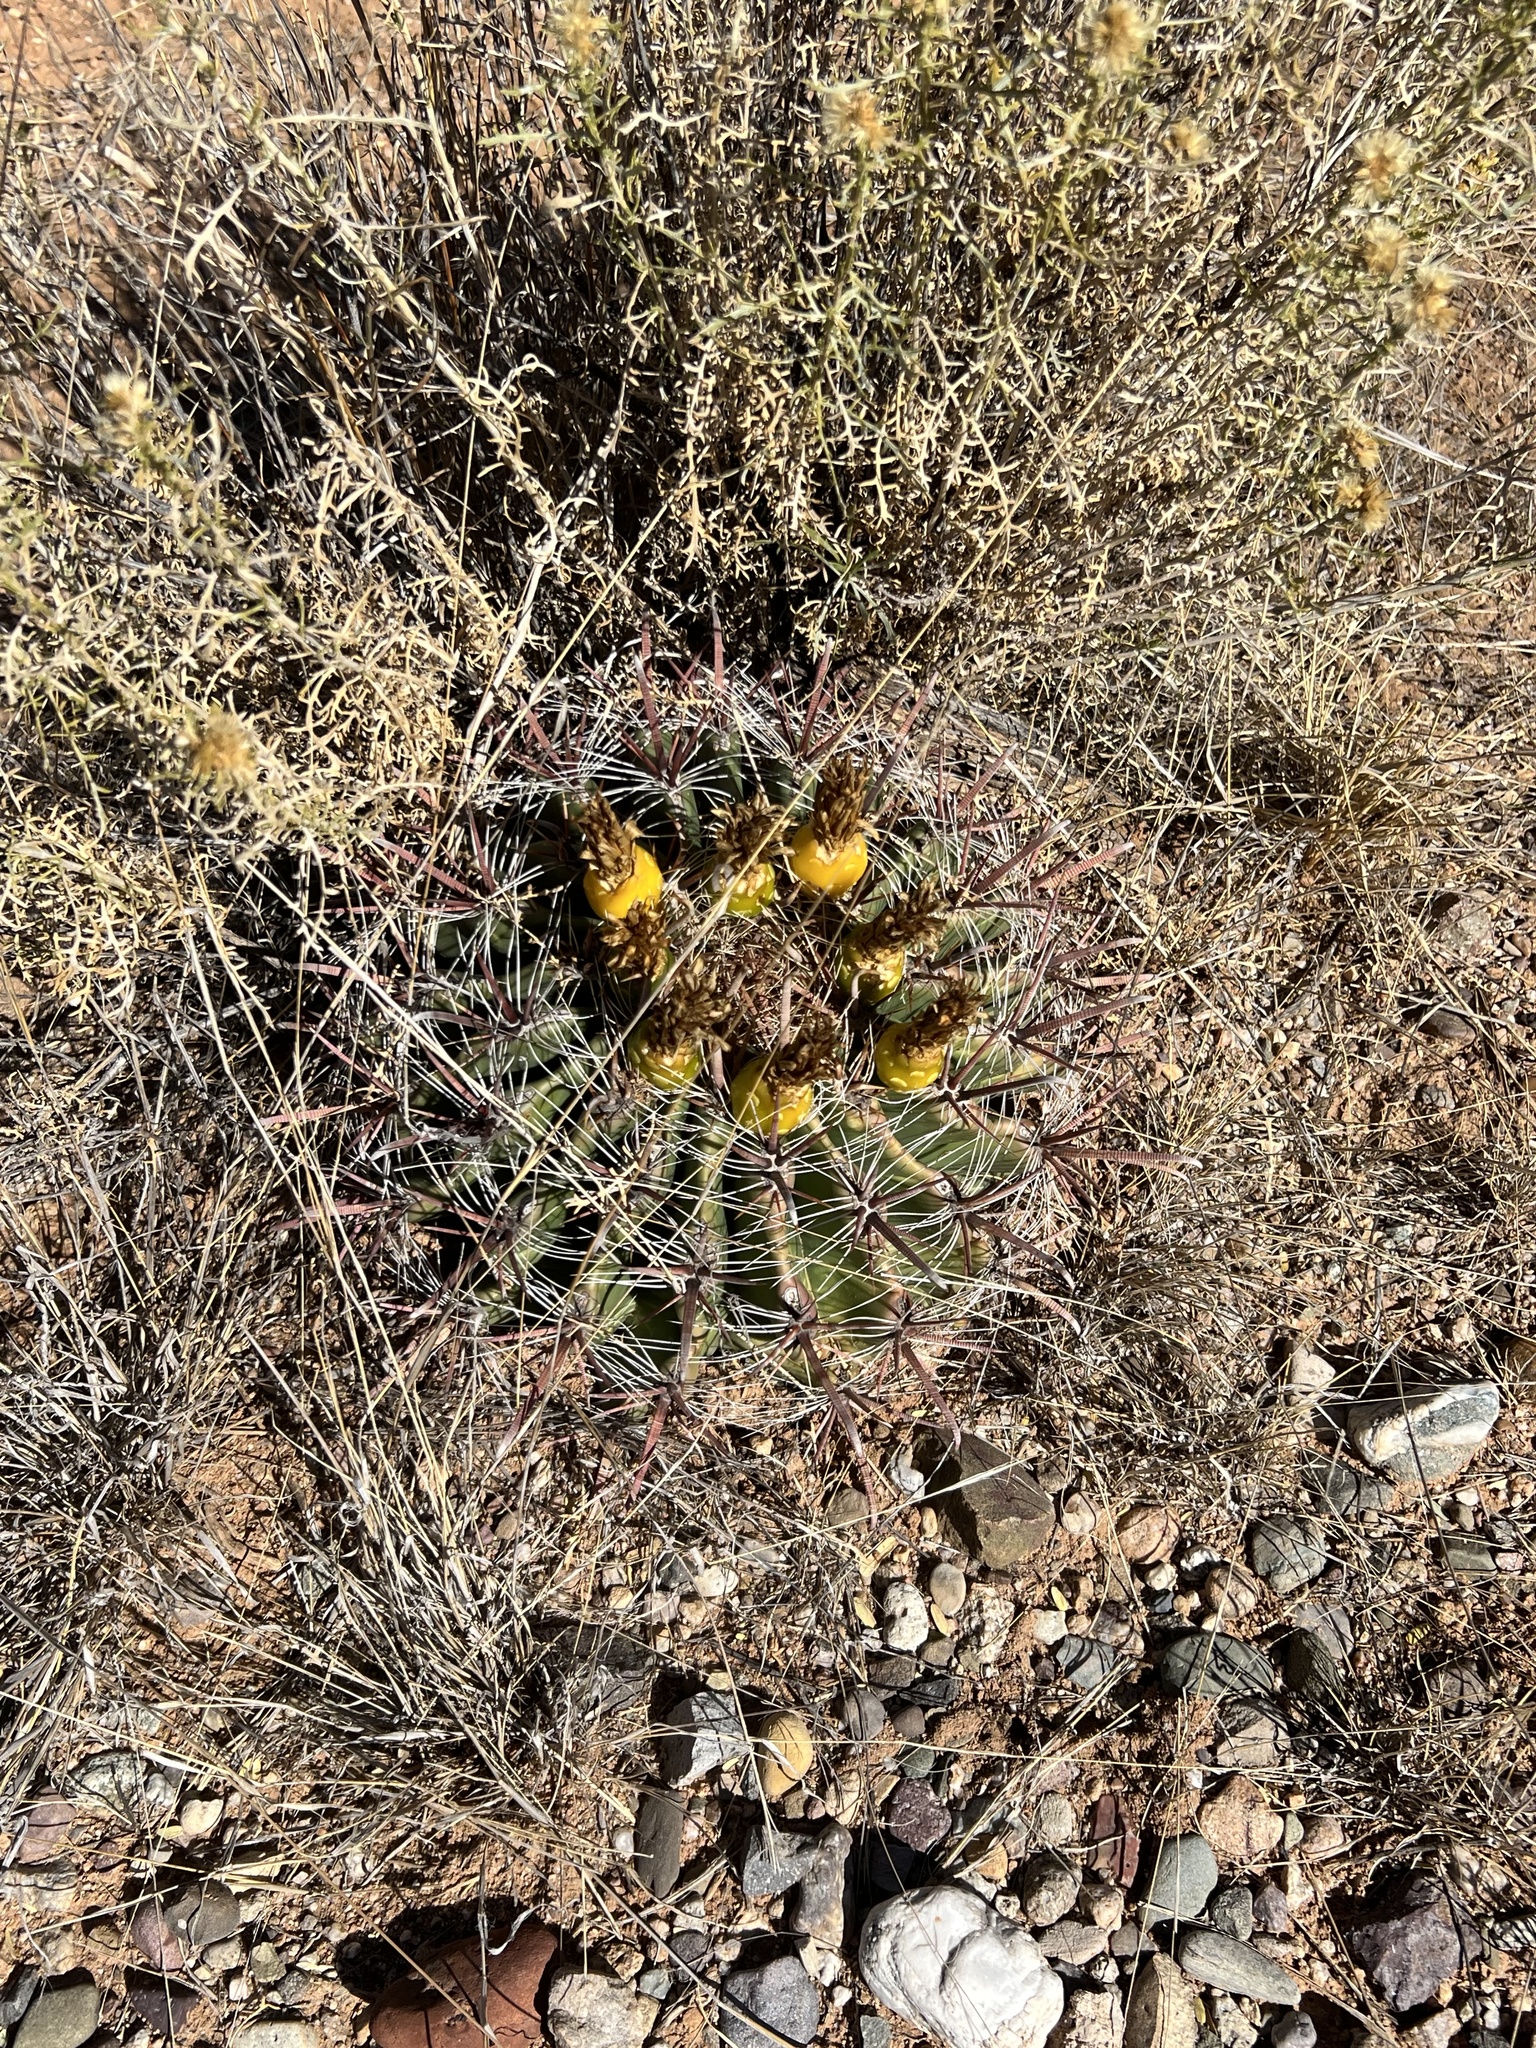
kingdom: Plantae
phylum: Tracheophyta
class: Magnoliopsida
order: Caryophyllales
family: Cactaceae
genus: Ferocactus
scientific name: Ferocactus wislizeni
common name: Candy barrel cactus
